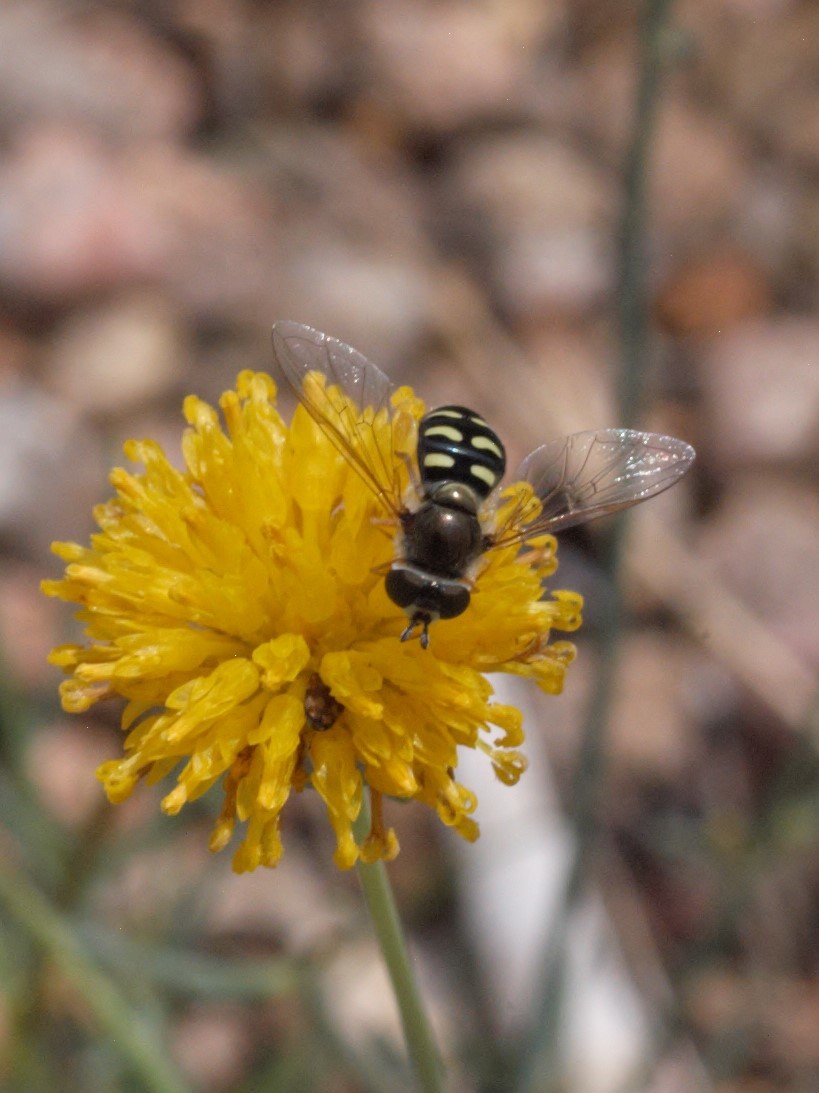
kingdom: Animalia
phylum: Arthropoda
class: Insecta
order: Diptera
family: Syrphidae
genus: Eupeodes
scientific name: Eupeodes volucris
